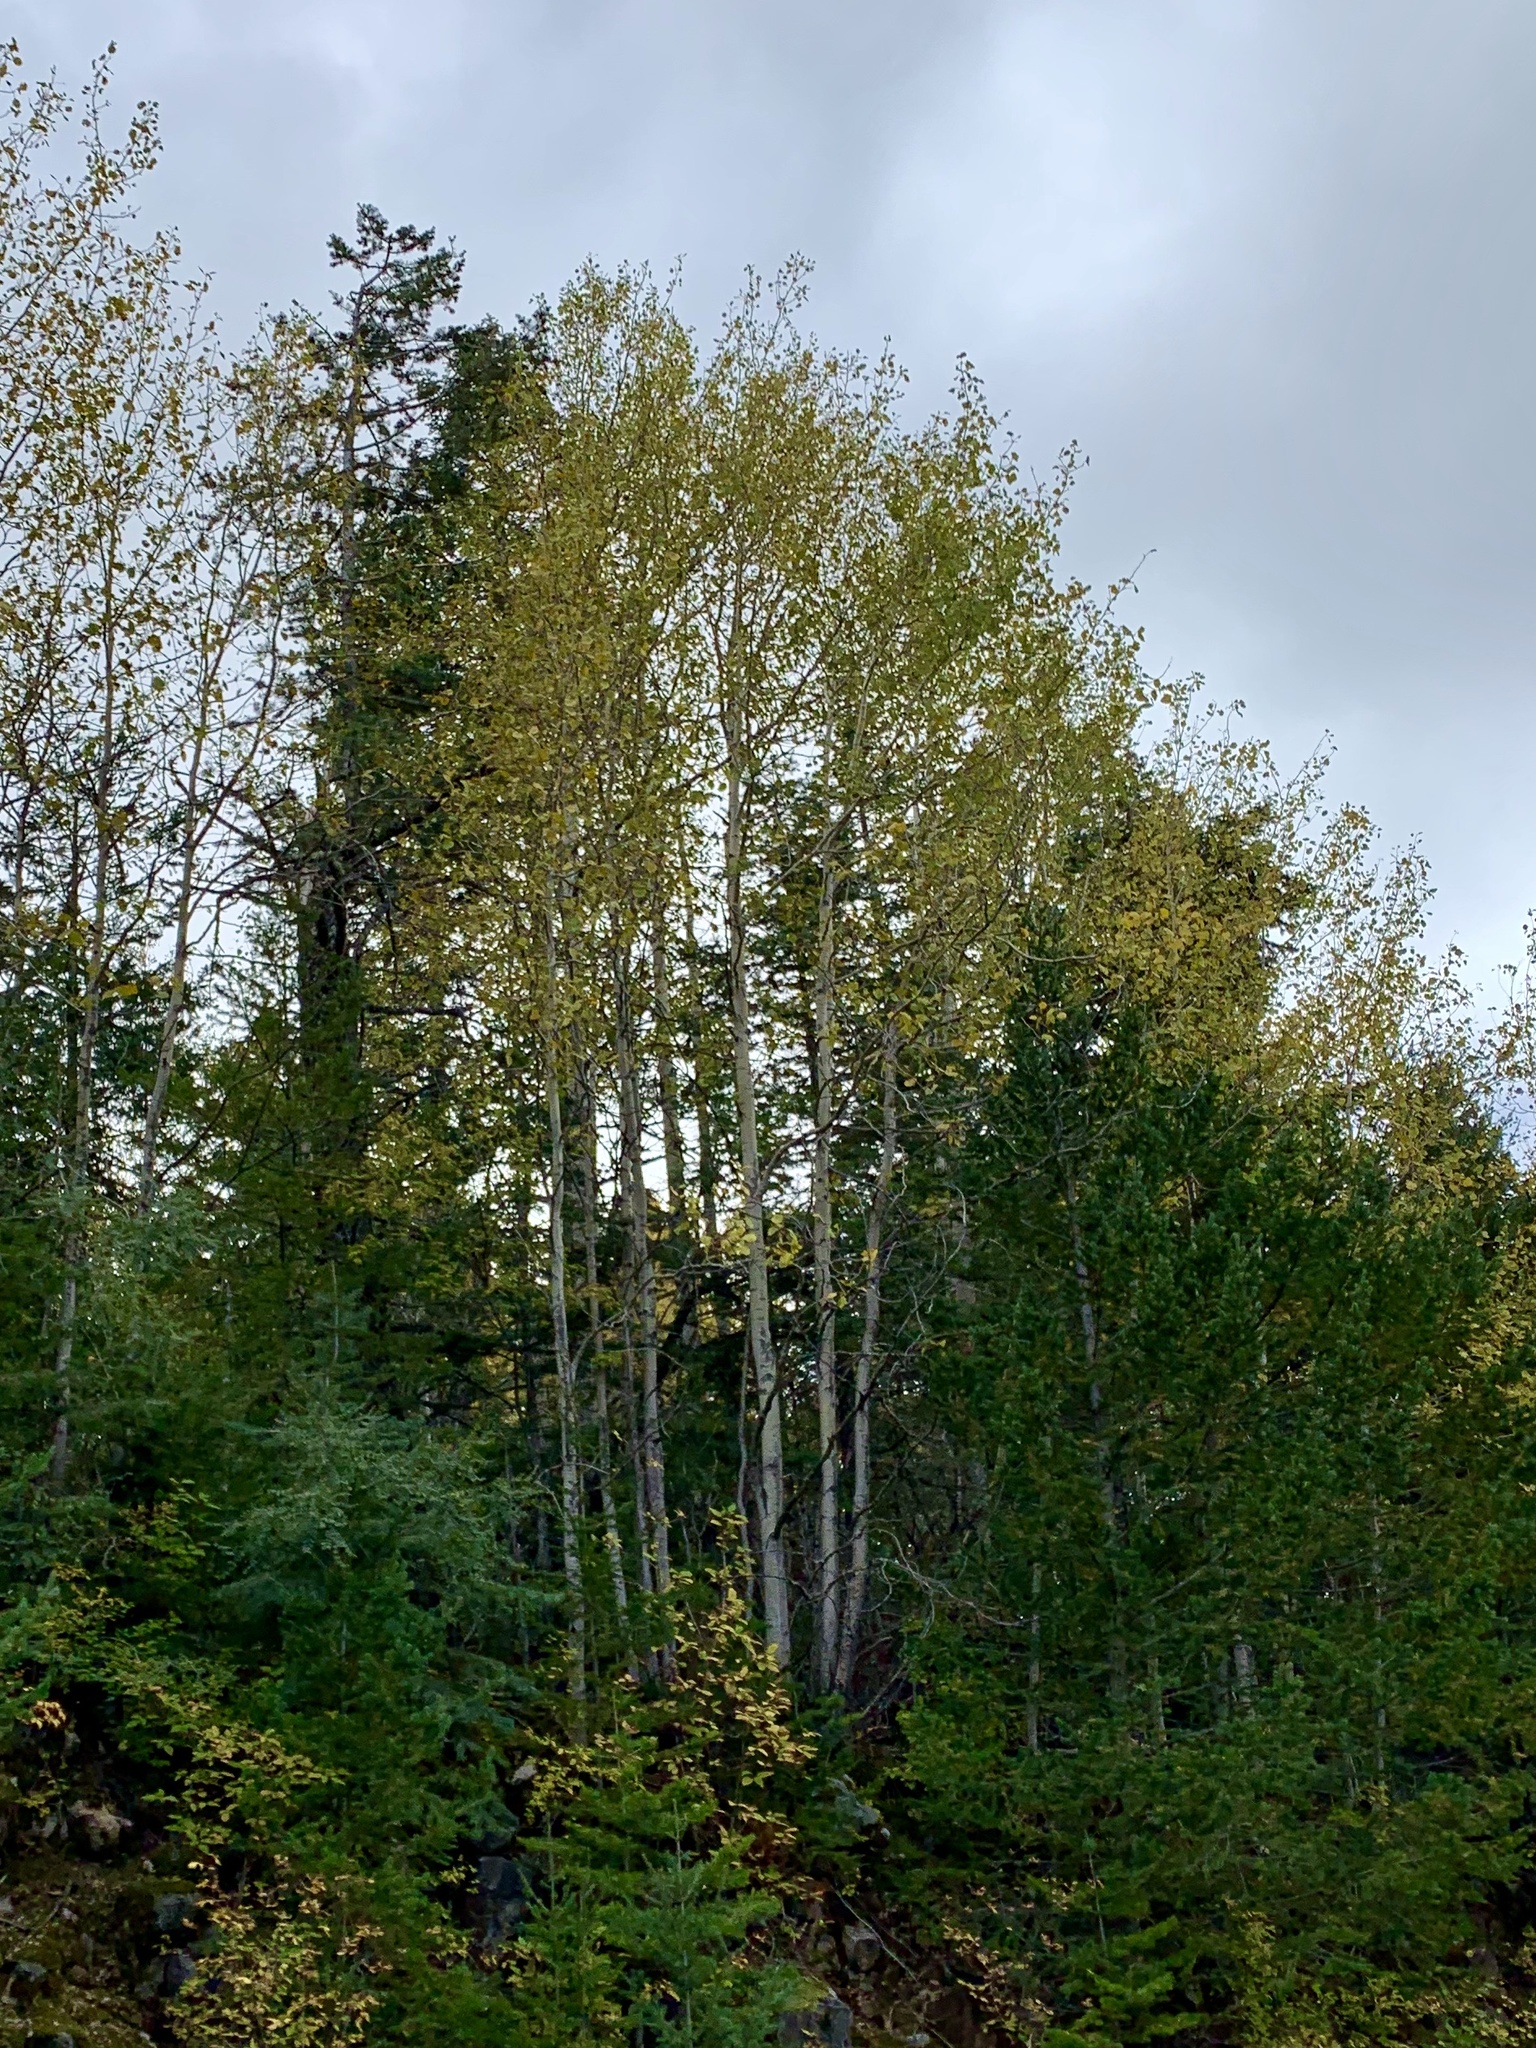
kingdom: Plantae
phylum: Tracheophyta
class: Magnoliopsida
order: Malpighiales
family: Salicaceae
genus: Populus
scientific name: Populus tremuloides
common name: Quaking aspen
